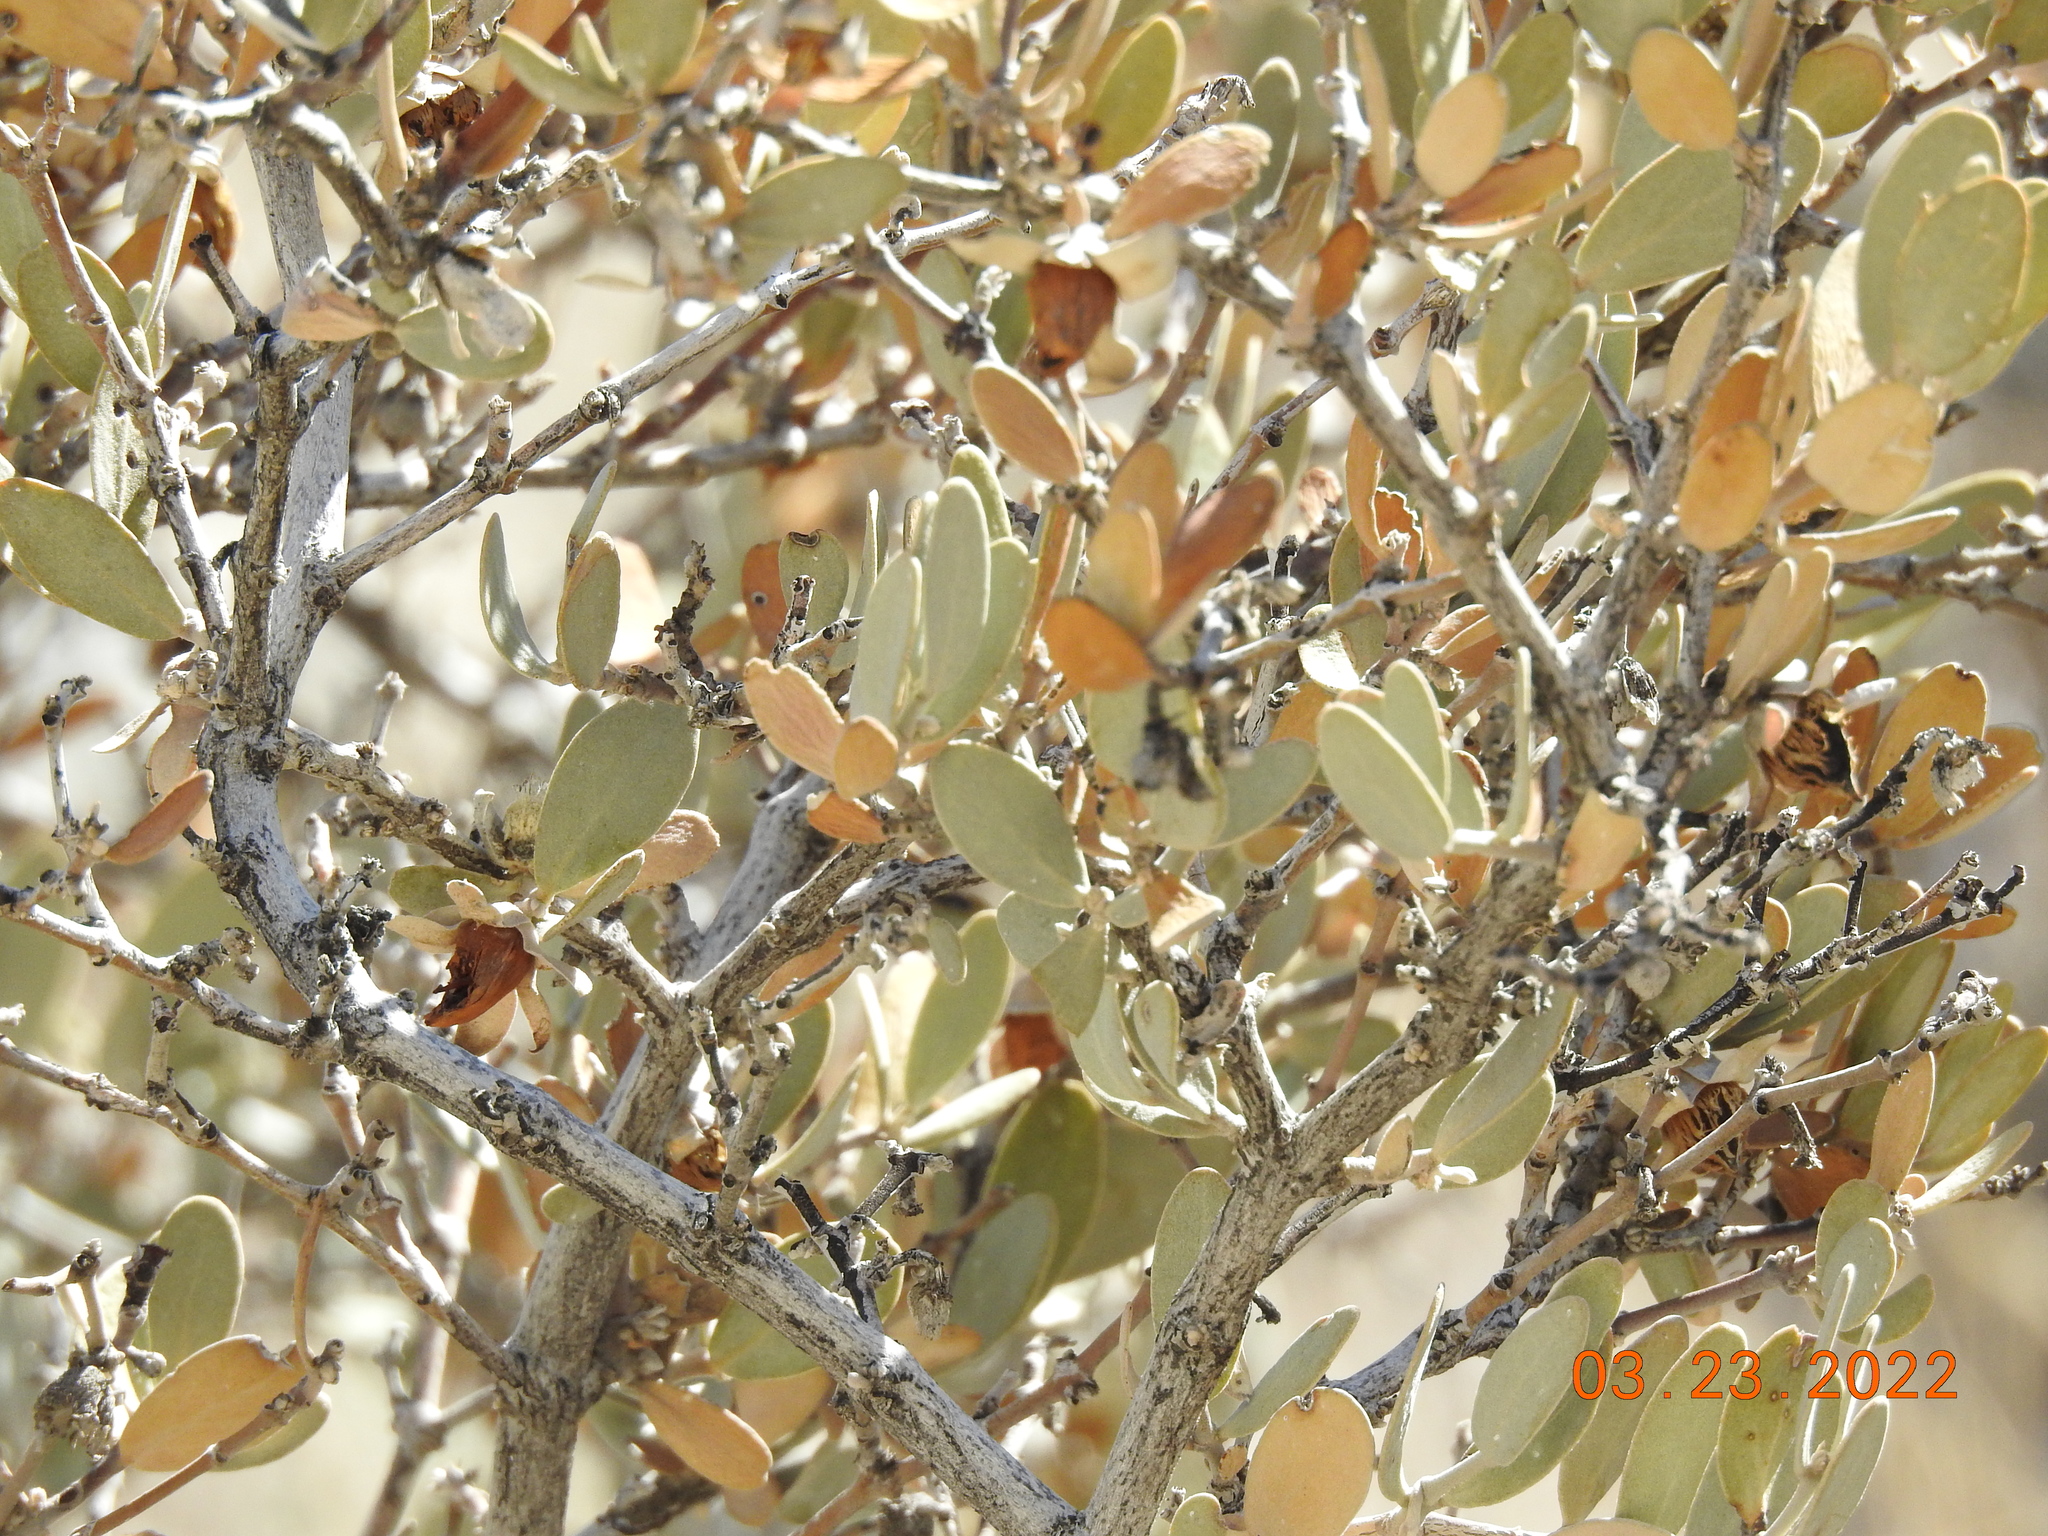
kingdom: Plantae
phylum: Tracheophyta
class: Magnoliopsida
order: Caryophyllales
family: Simmondsiaceae
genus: Simmondsia
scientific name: Simmondsia chinensis
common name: Jojoba
